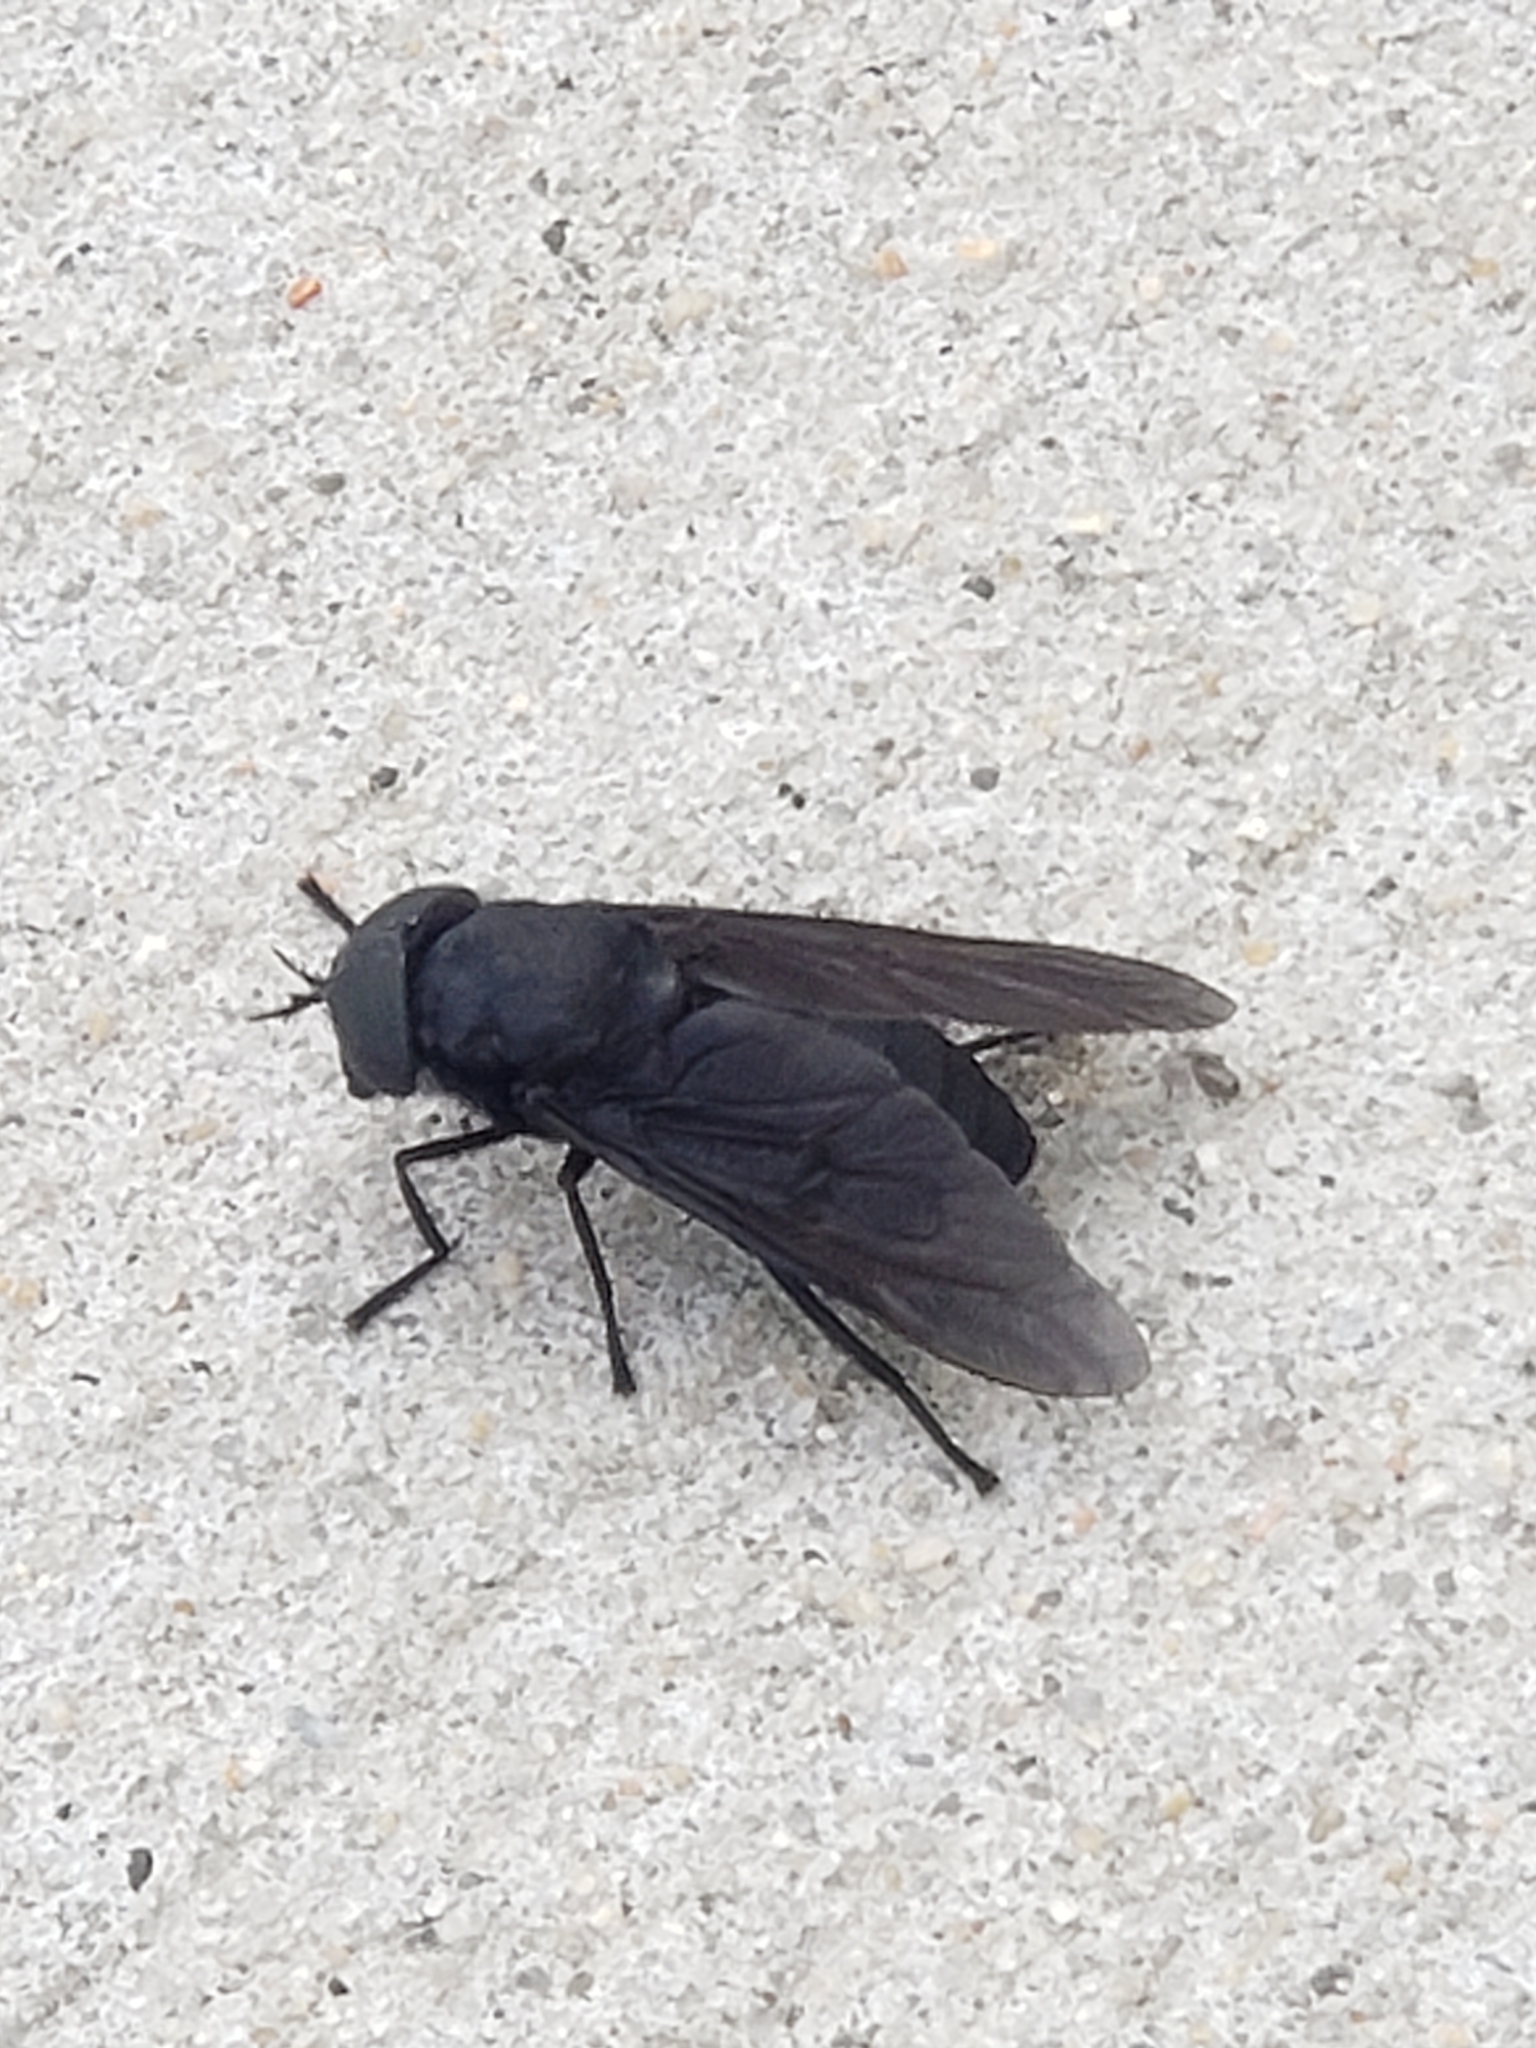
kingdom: Animalia
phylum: Arthropoda
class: Insecta
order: Diptera
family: Tabanidae
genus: Tabanus
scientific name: Tabanus atratus
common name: Black horse fly
